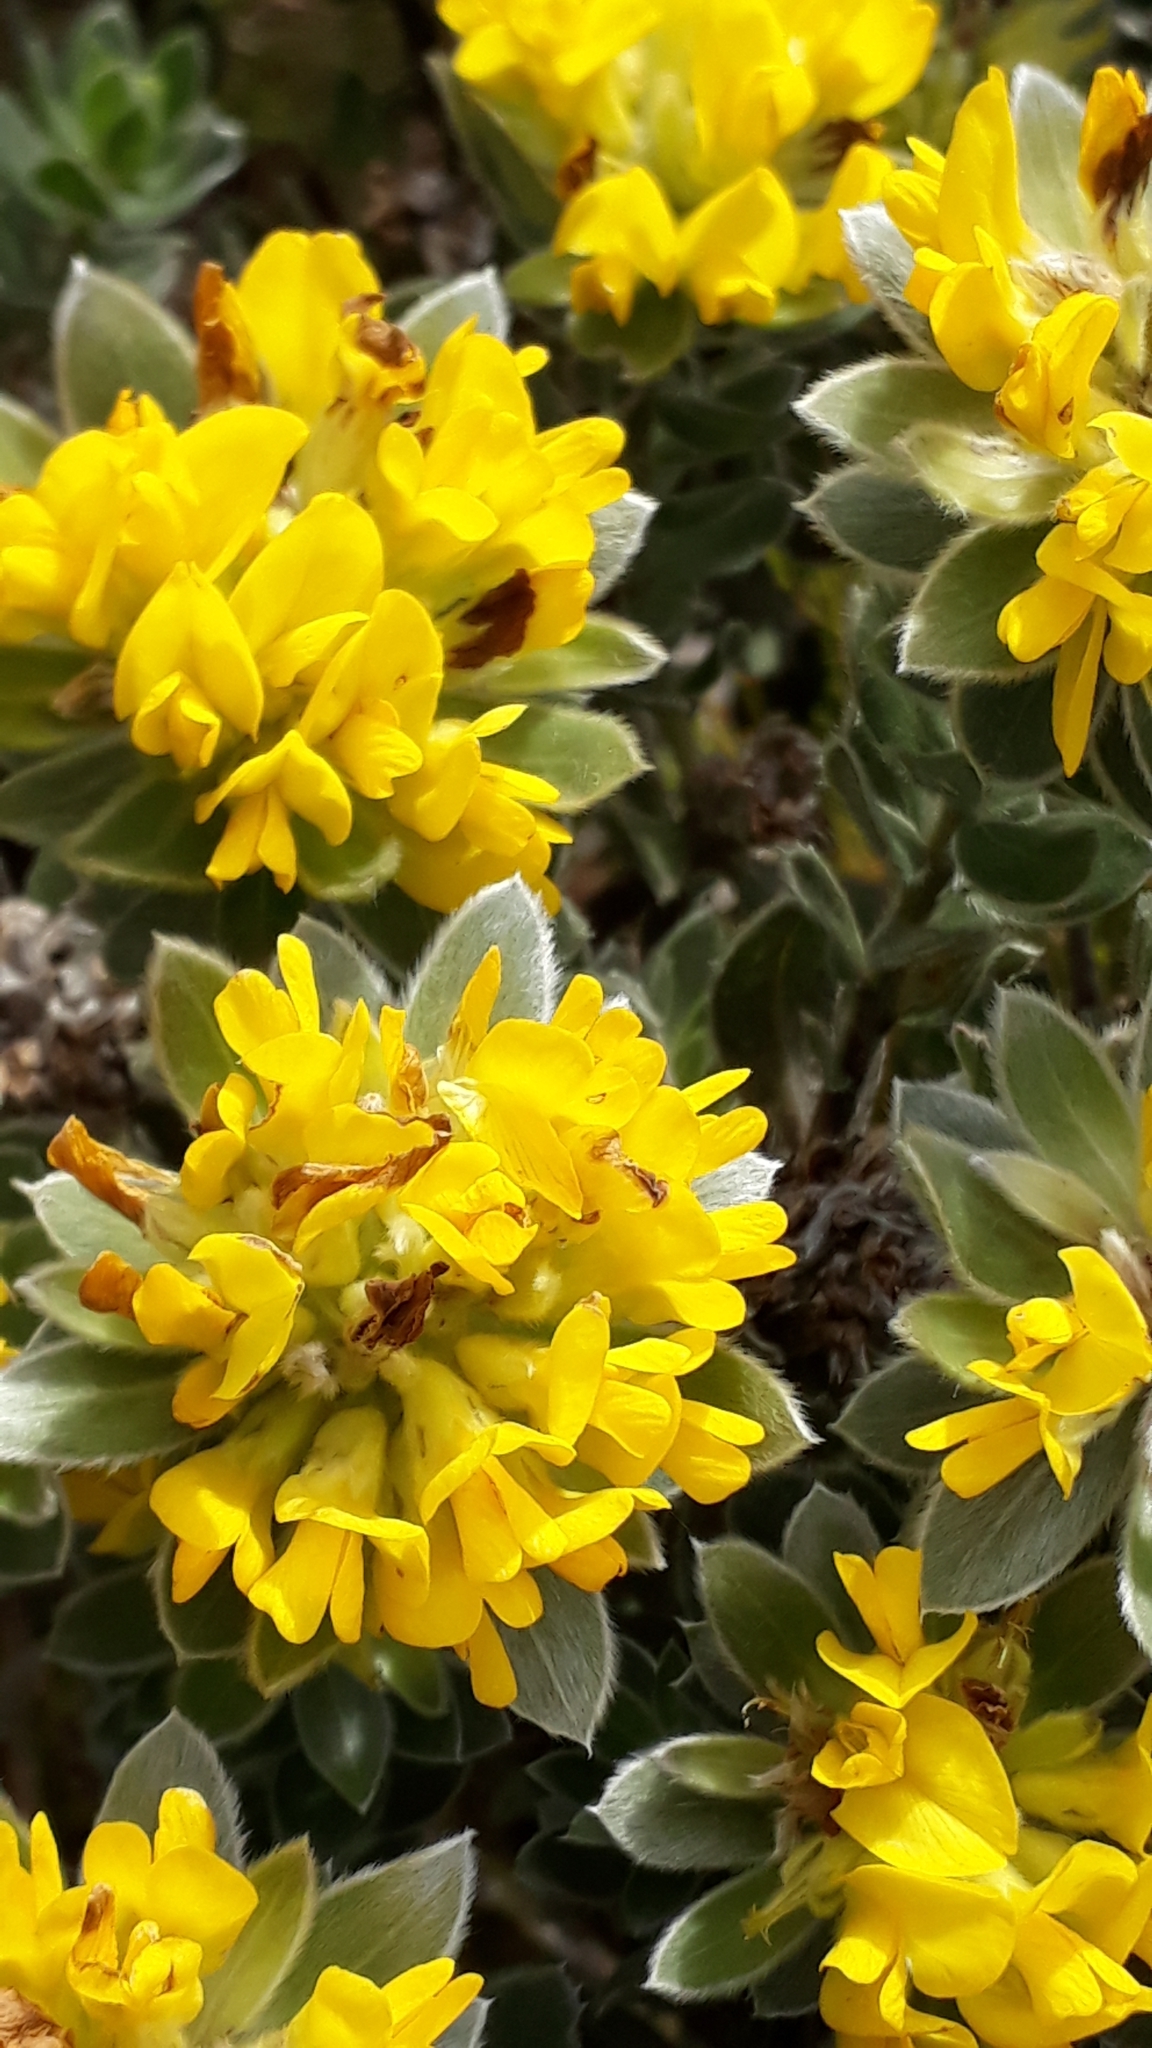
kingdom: Plantae
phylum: Tracheophyta
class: Magnoliopsida
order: Fabales
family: Fabaceae
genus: Xiphotheca
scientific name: Xiphotheca fruticosa
